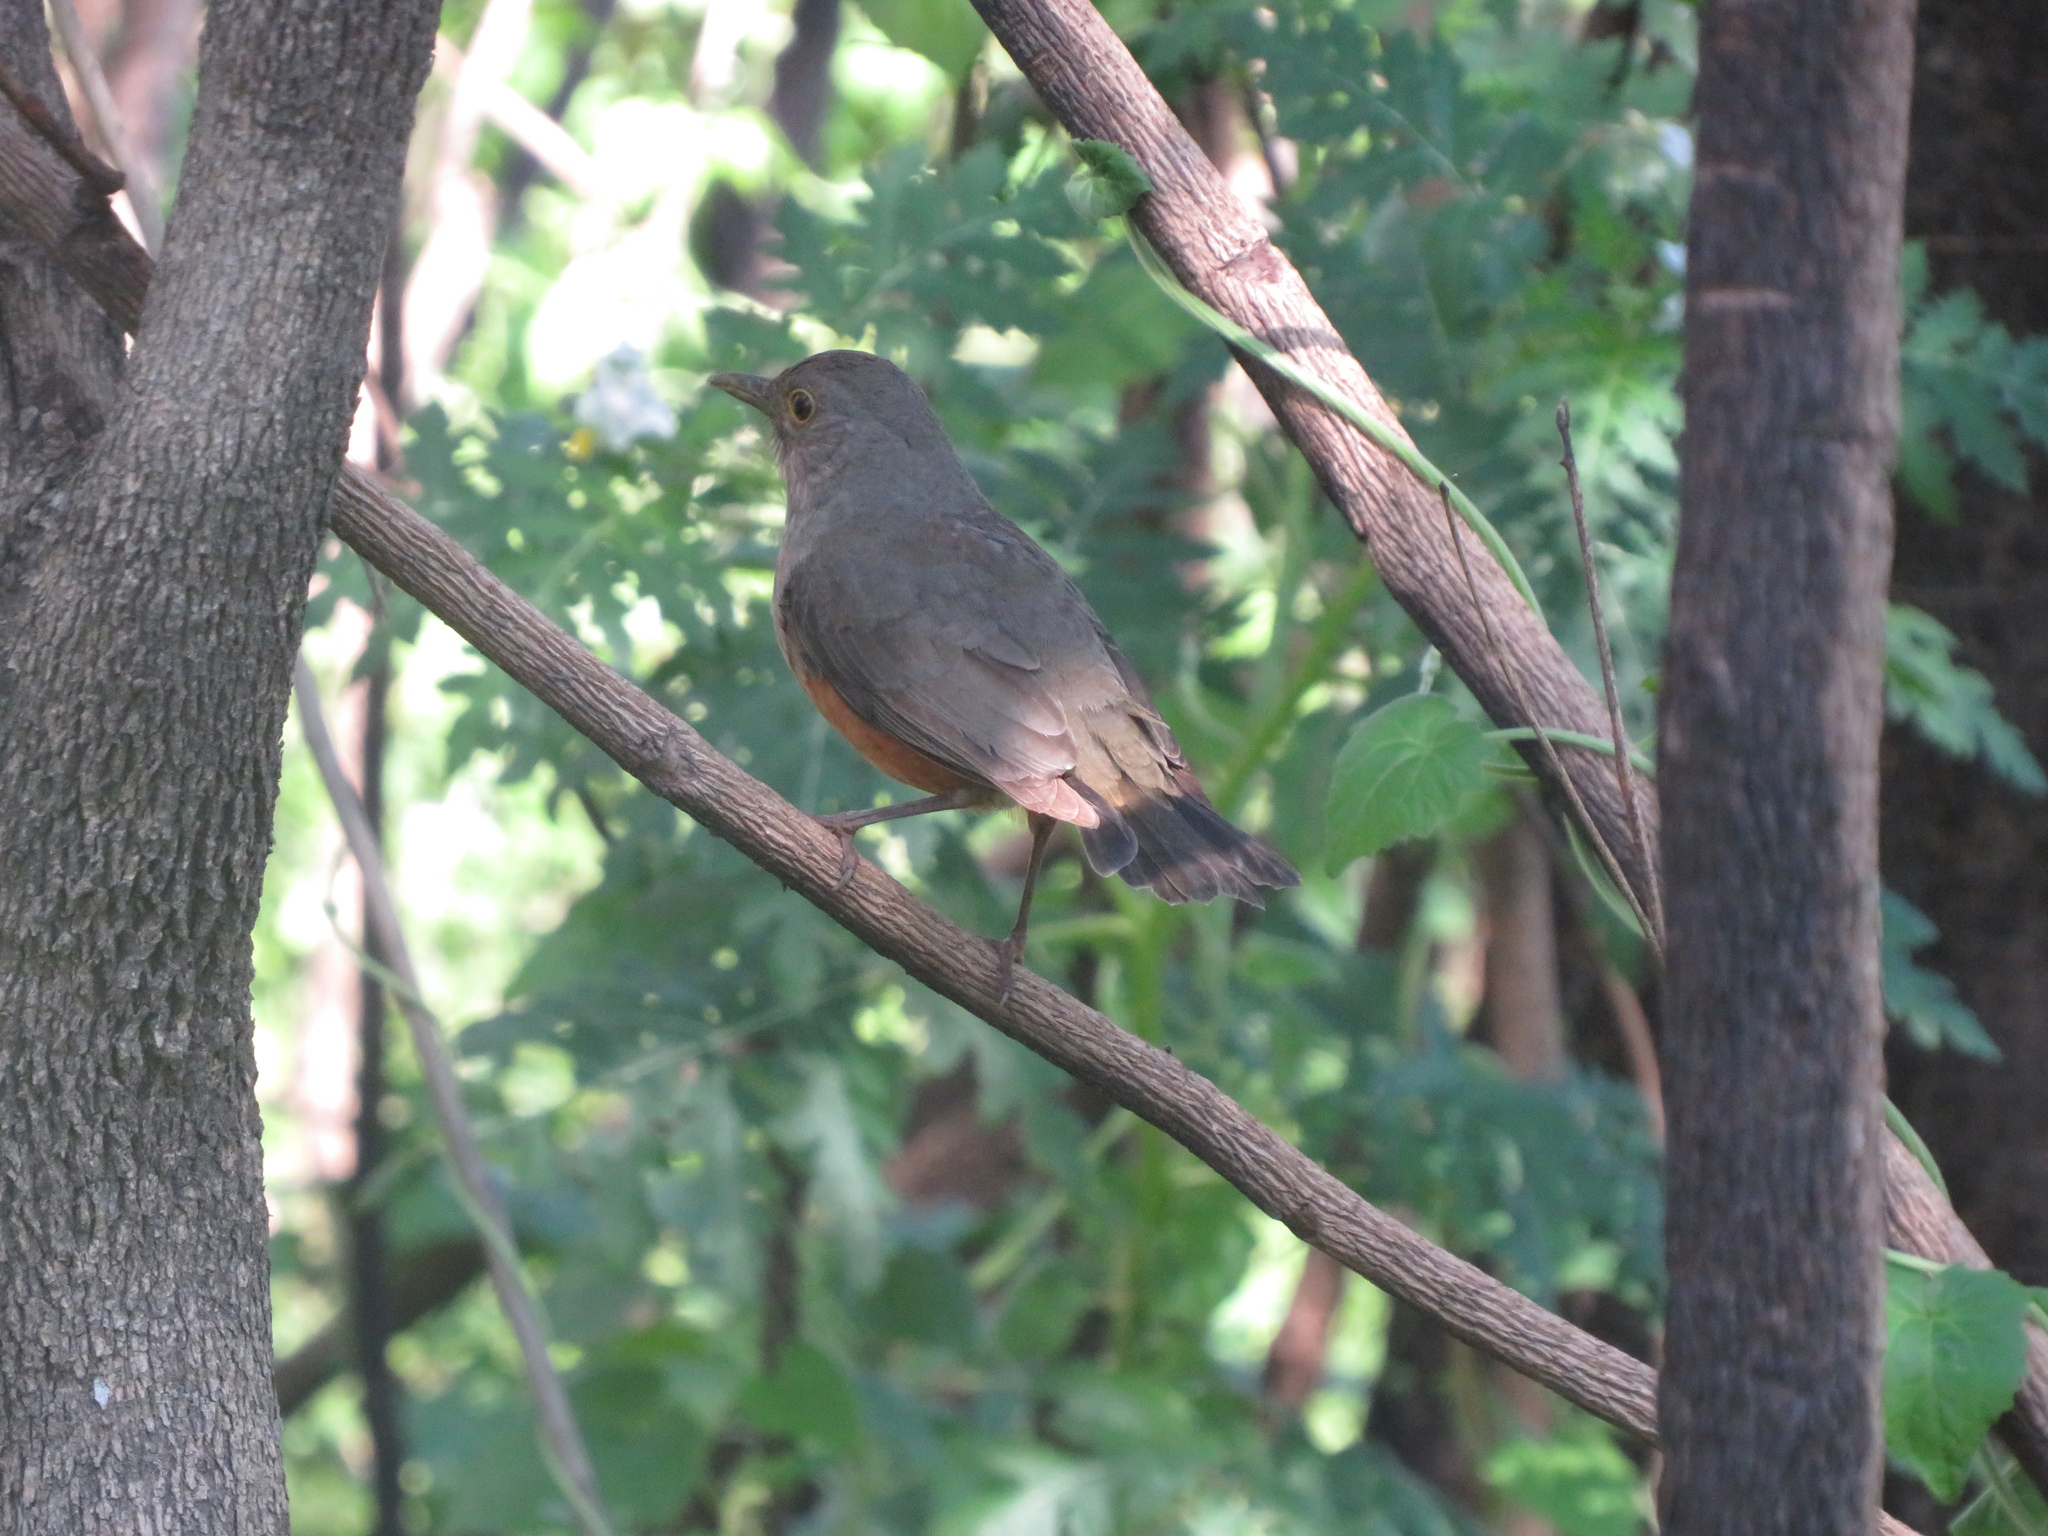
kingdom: Animalia
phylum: Chordata
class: Aves
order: Passeriformes
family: Turdidae
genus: Turdus
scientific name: Turdus rufiventris
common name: Rufous-bellied thrush
